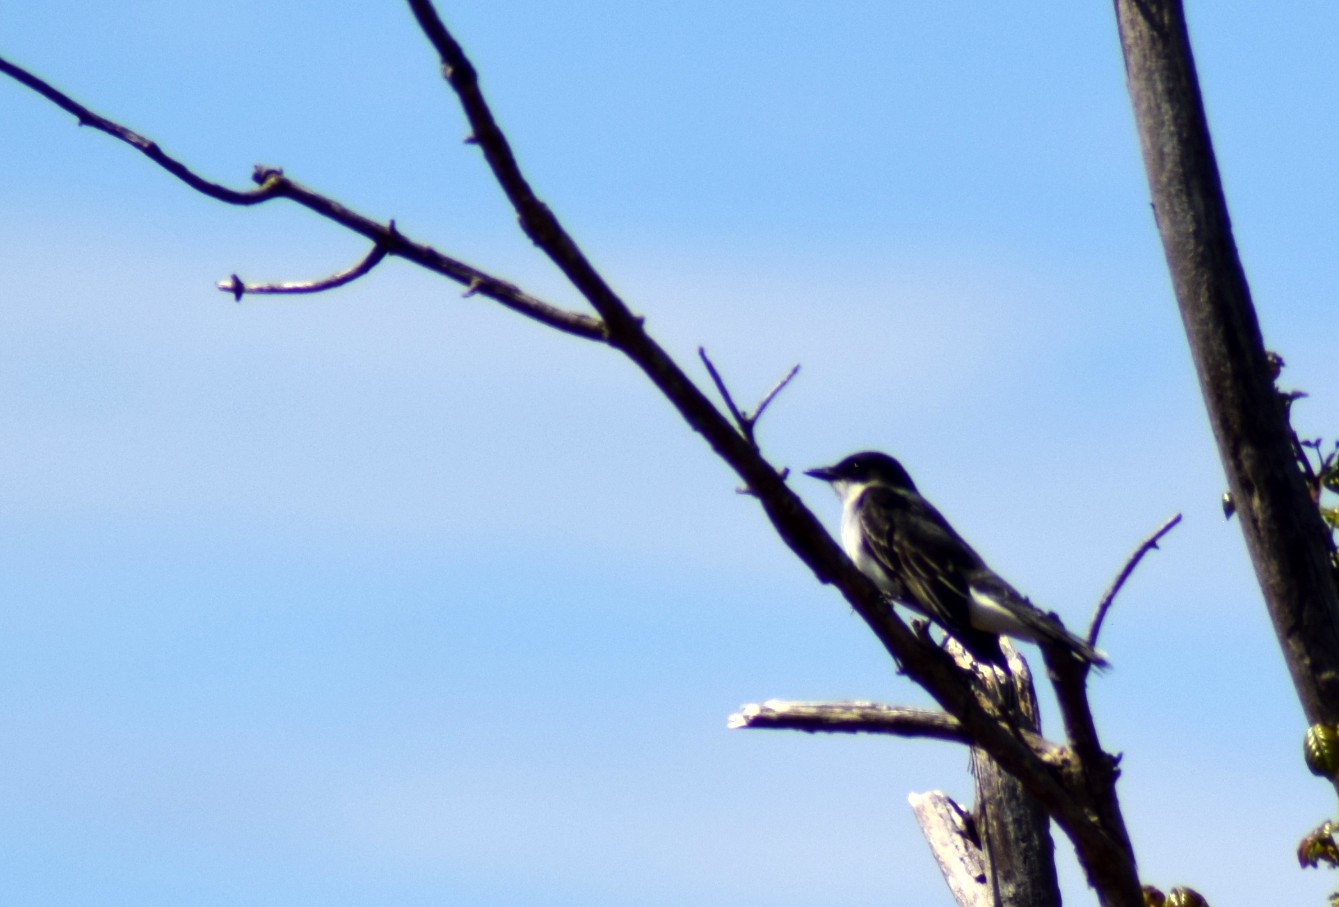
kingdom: Animalia
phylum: Chordata
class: Aves
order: Passeriformes
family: Tyrannidae
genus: Tyrannus
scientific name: Tyrannus tyrannus
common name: Eastern kingbird
